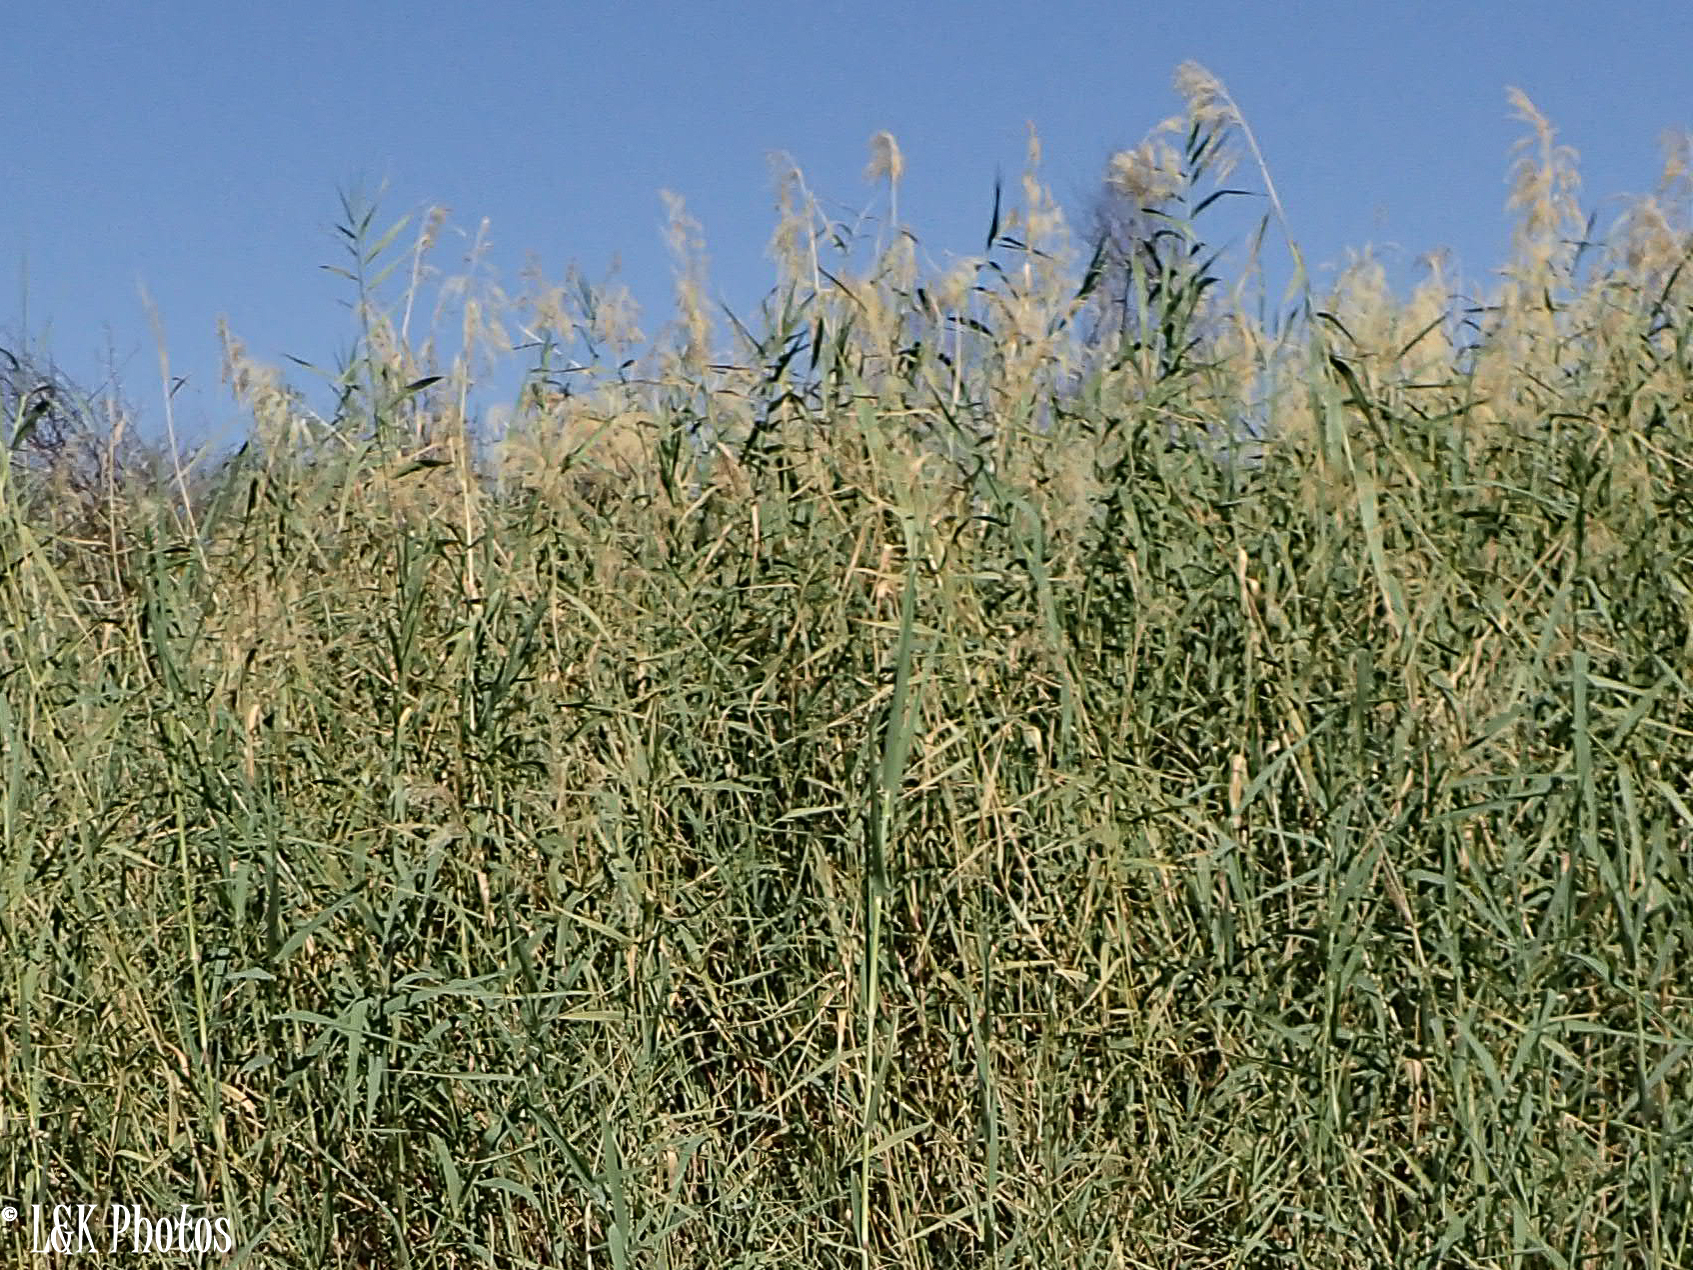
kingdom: Plantae
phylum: Tracheophyta
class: Liliopsida
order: Poales
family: Poaceae
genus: Phragmites
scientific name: Phragmites australis
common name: Common reed
